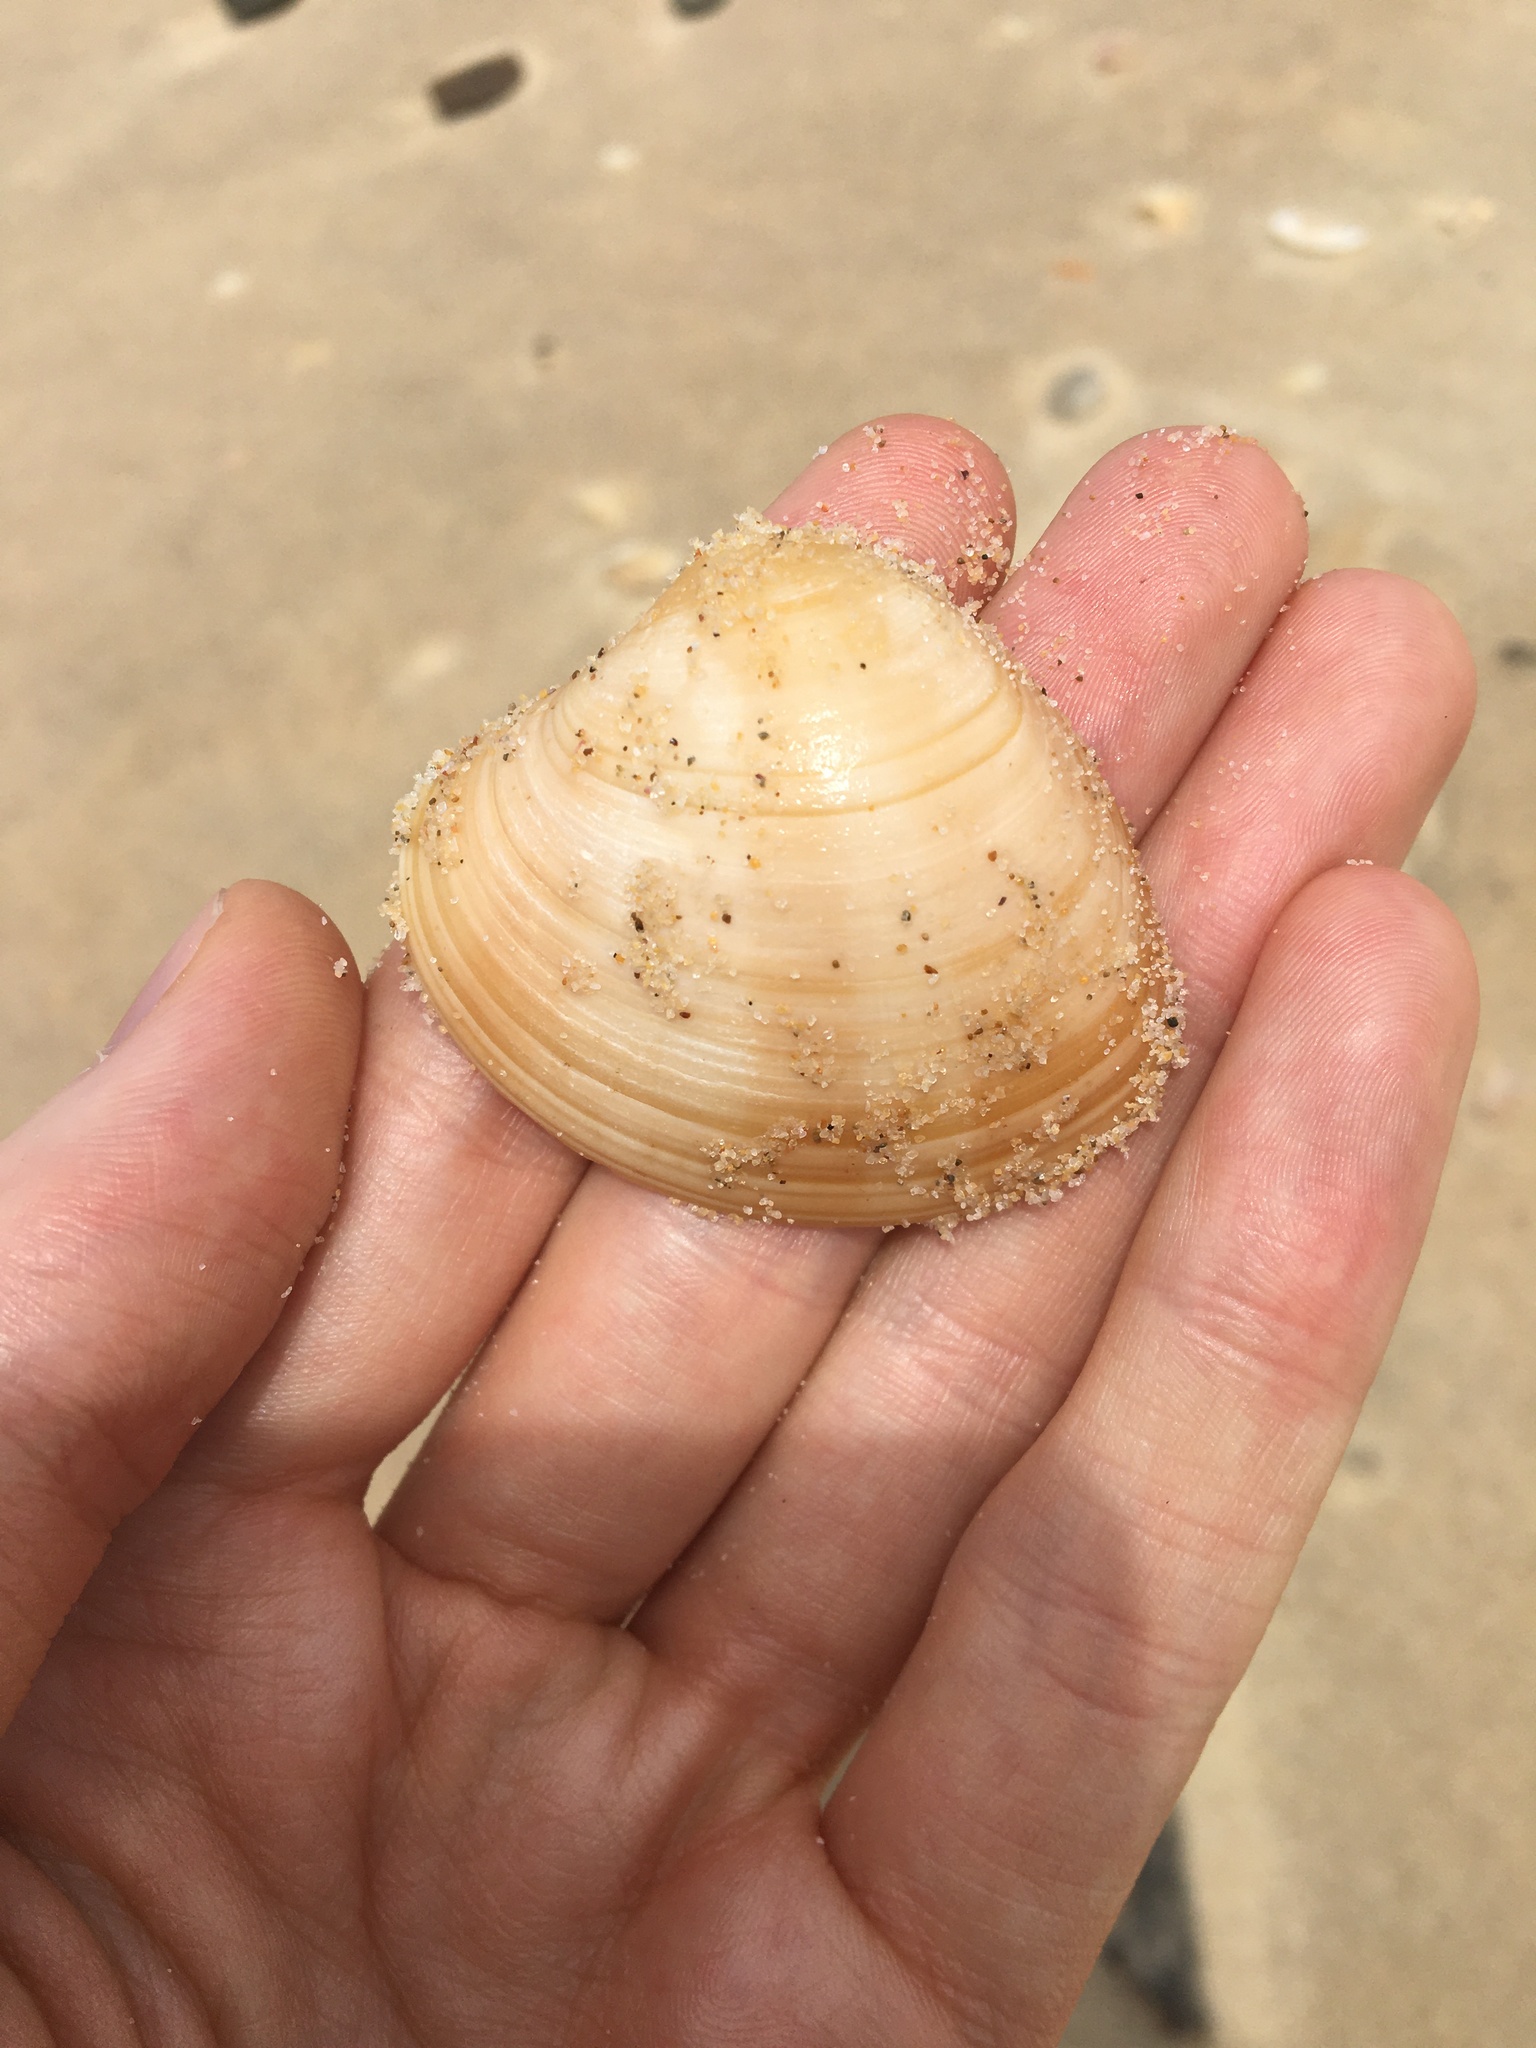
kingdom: Animalia
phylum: Mollusca
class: Bivalvia
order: Venerida
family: Veneridae
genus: Bassina
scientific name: Bassina pachyphylla
